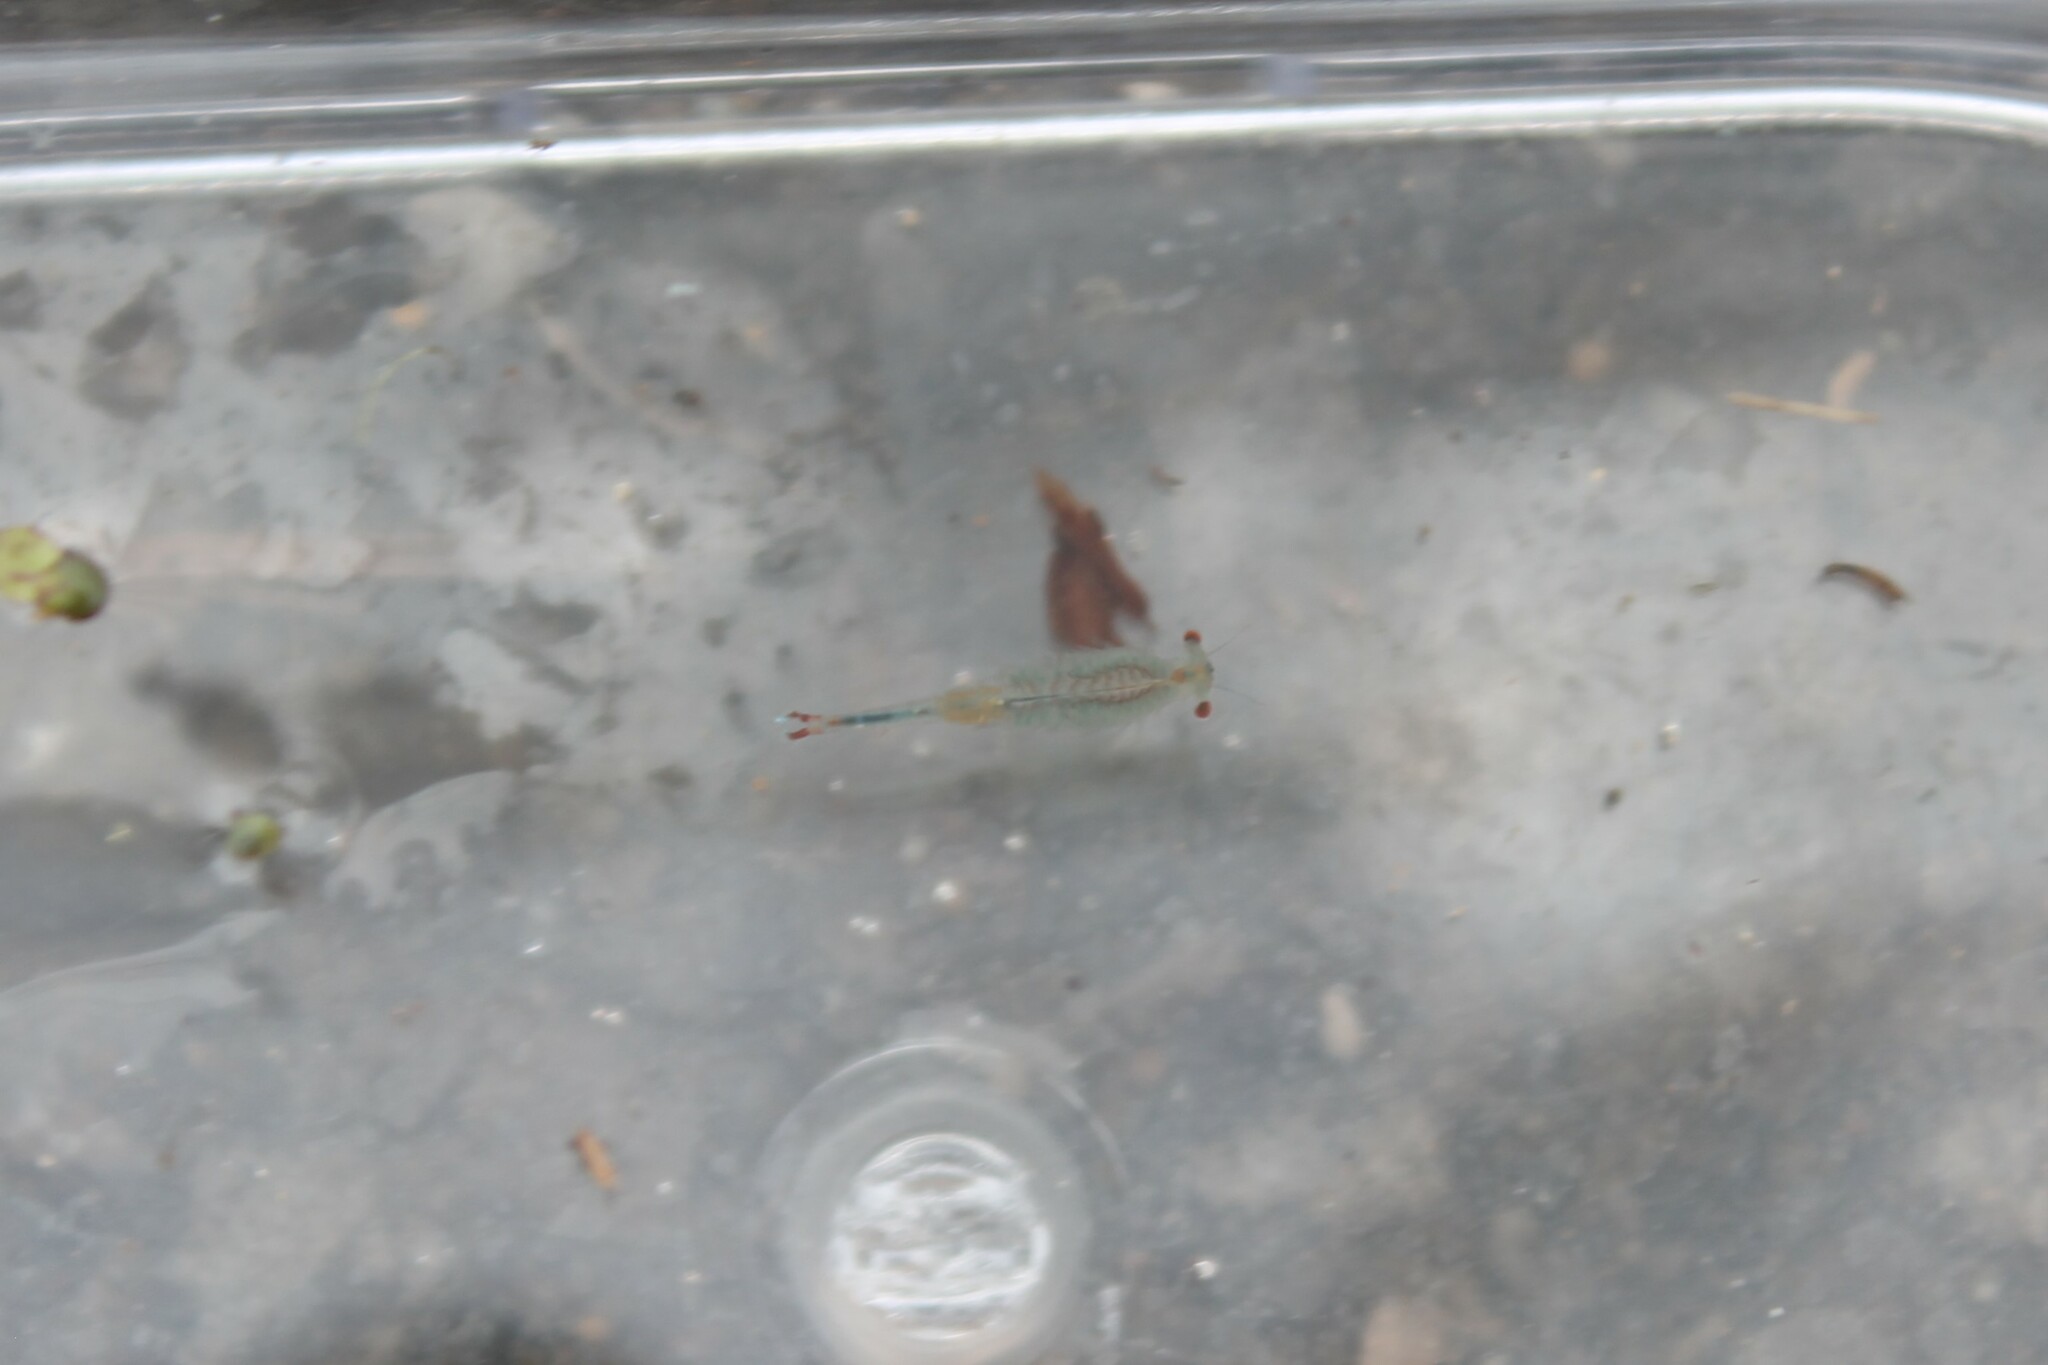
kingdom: Animalia
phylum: Arthropoda
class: Branchiopoda
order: Anostraca
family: Chirocephalidae
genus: Eubranchipus
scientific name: Eubranchipus holmanii
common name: Holman fairy shrimp
